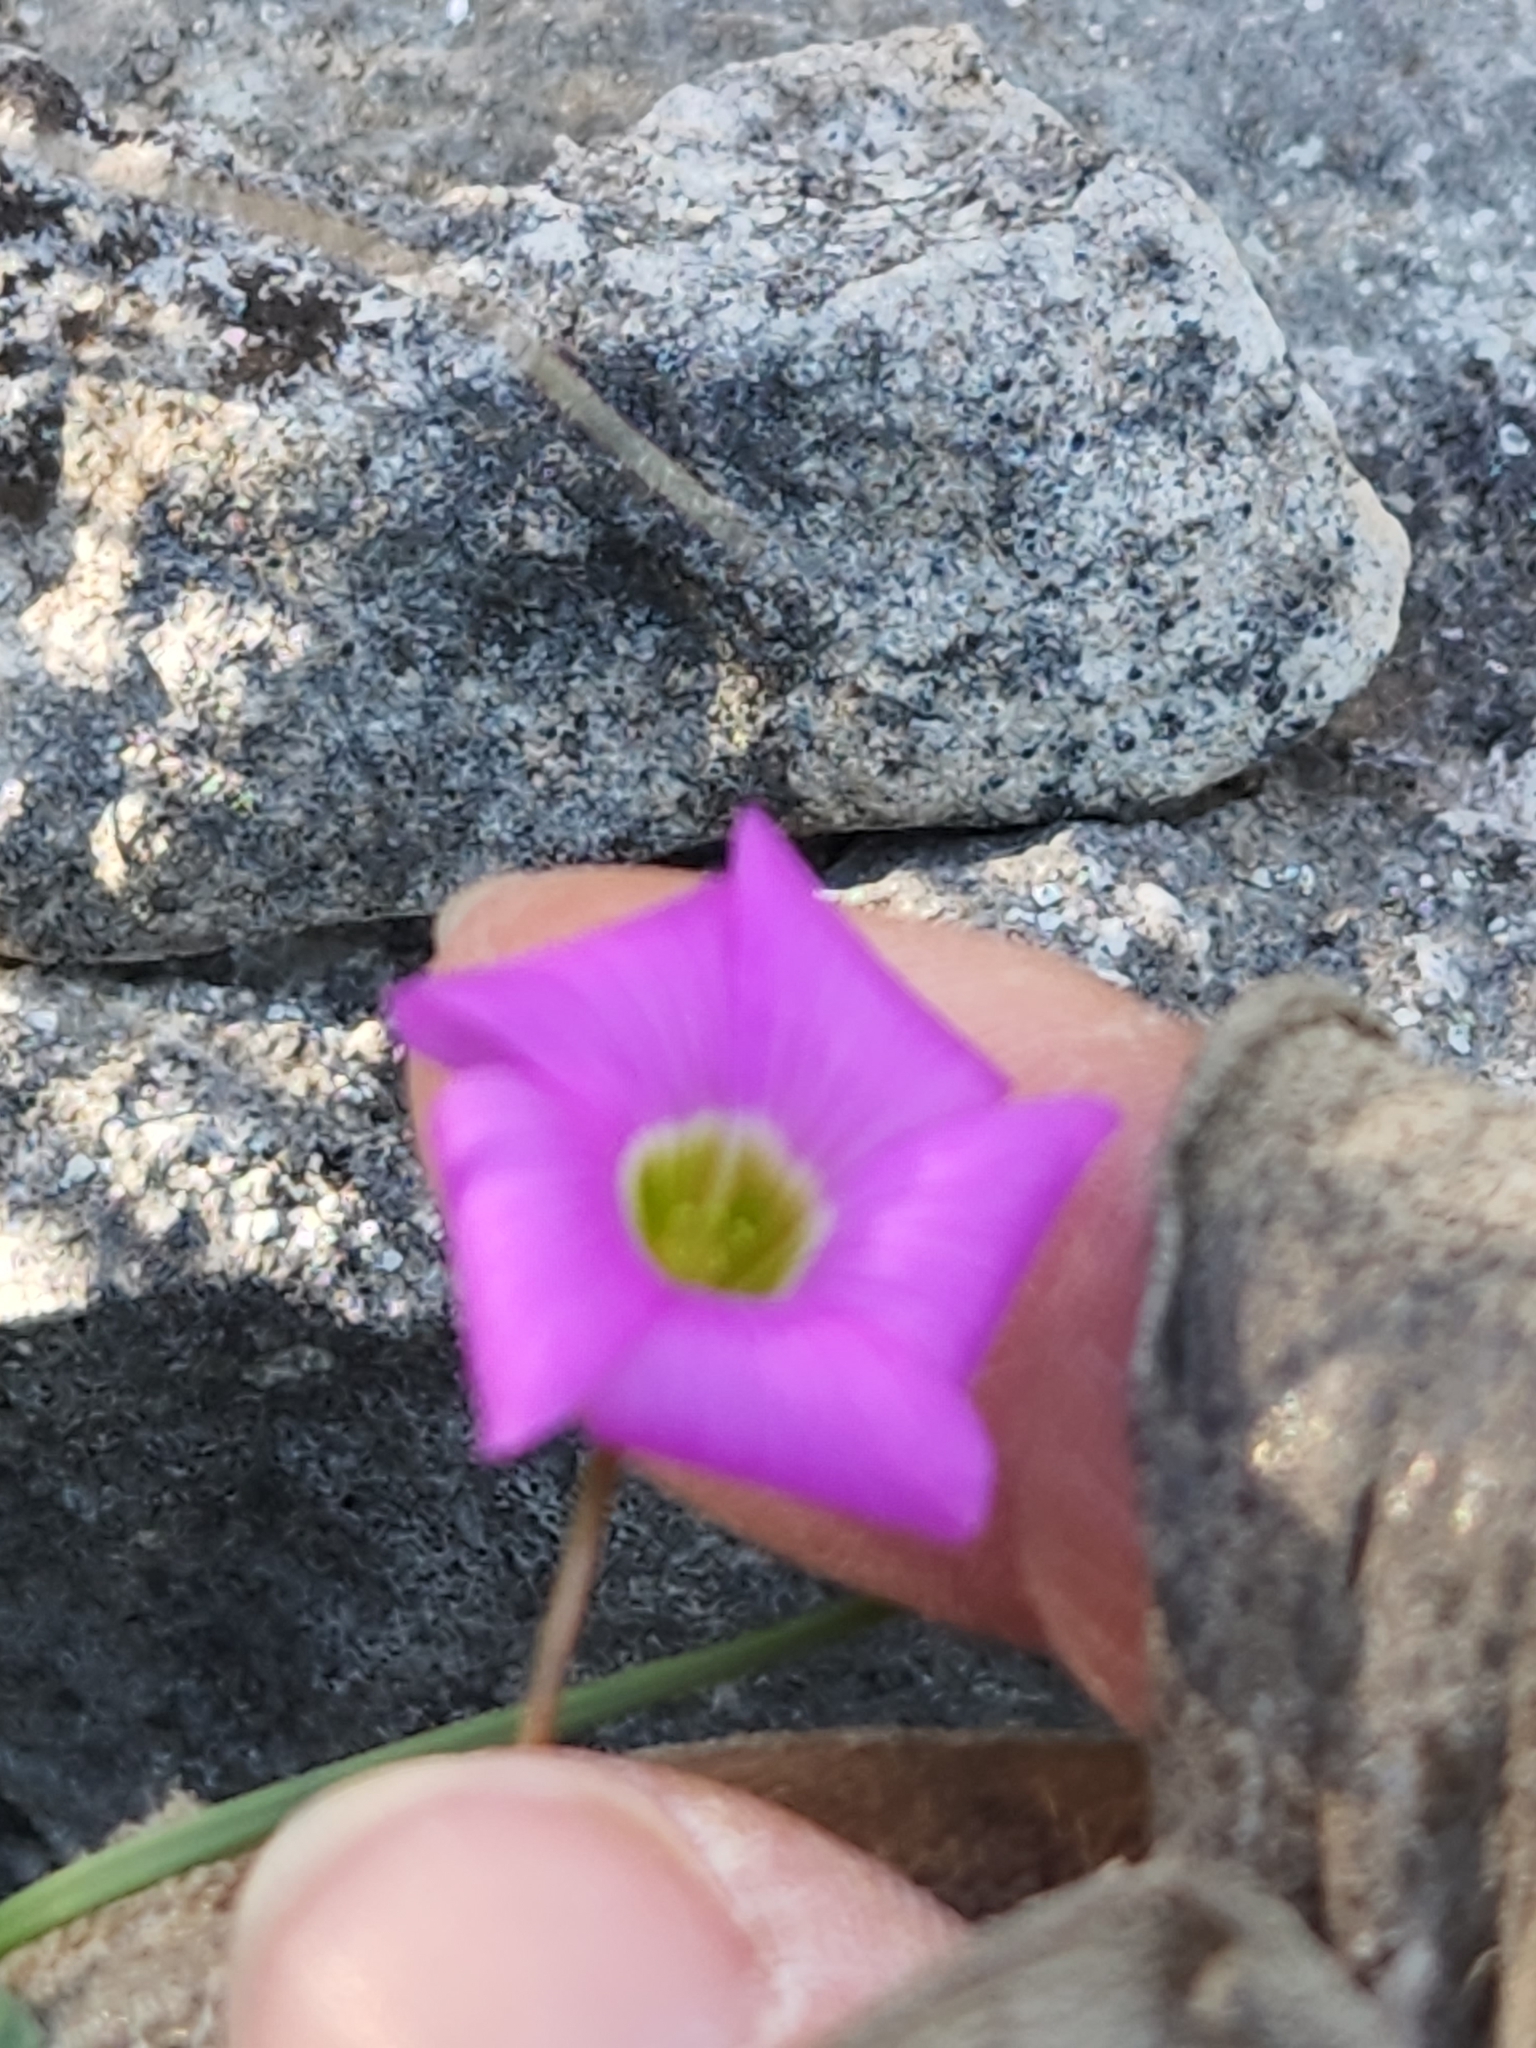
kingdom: Plantae
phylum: Tracheophyta
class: Magnoliopsida
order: Oxalidales
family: Oxalidaceae
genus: Oxalis
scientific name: Oxalis drummondii
